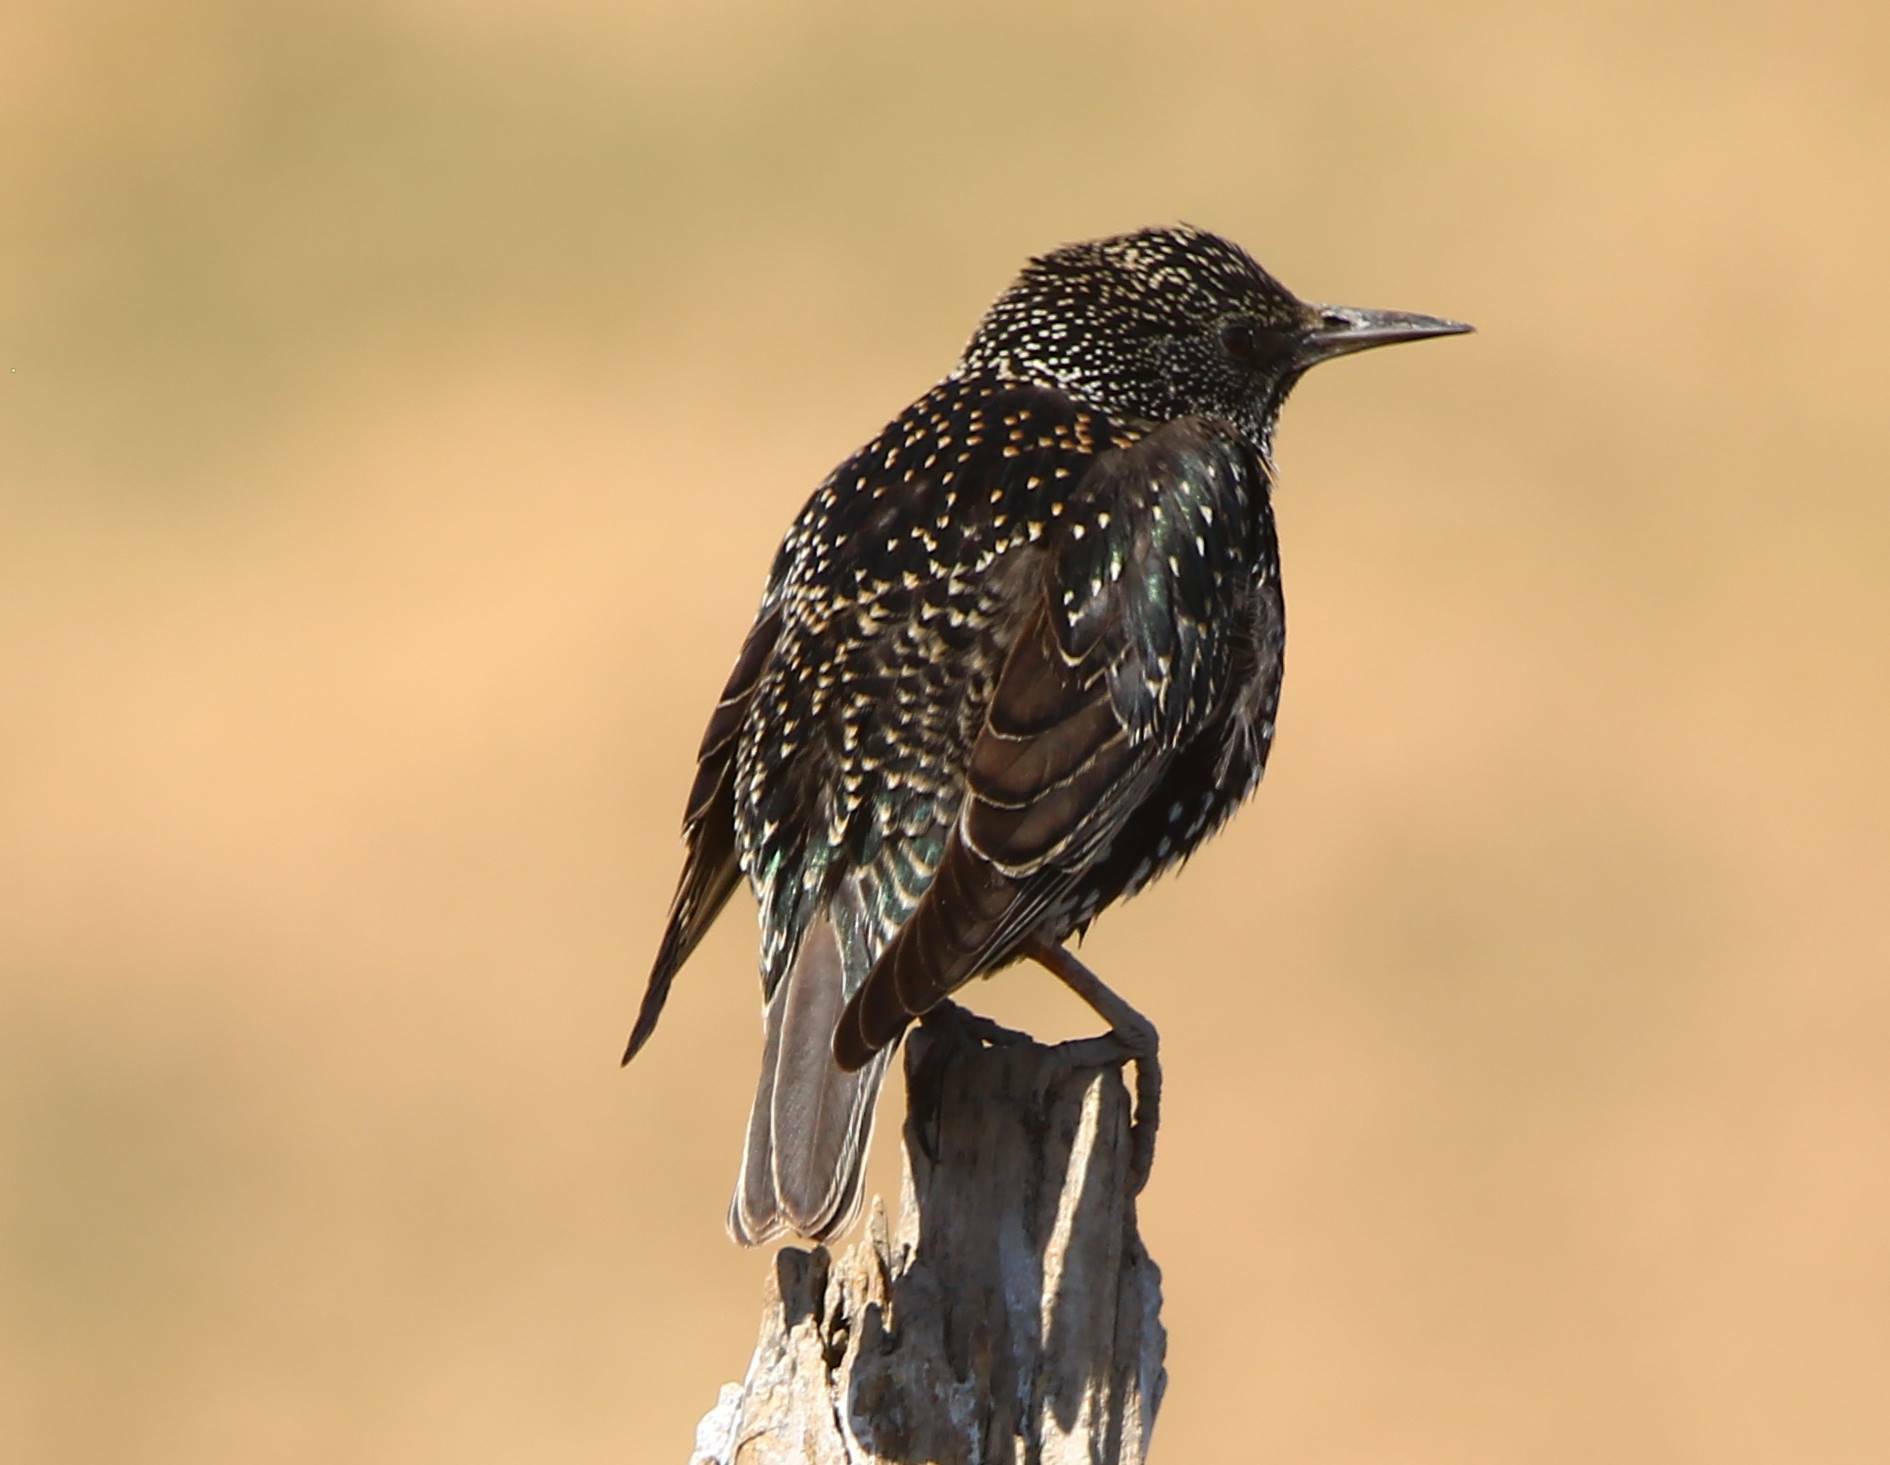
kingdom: Animalia
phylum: Chordata
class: Aves
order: Passeriformes
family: Sturnidae
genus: Sturnus
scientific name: Sturnus vulgaris
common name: Common starling
